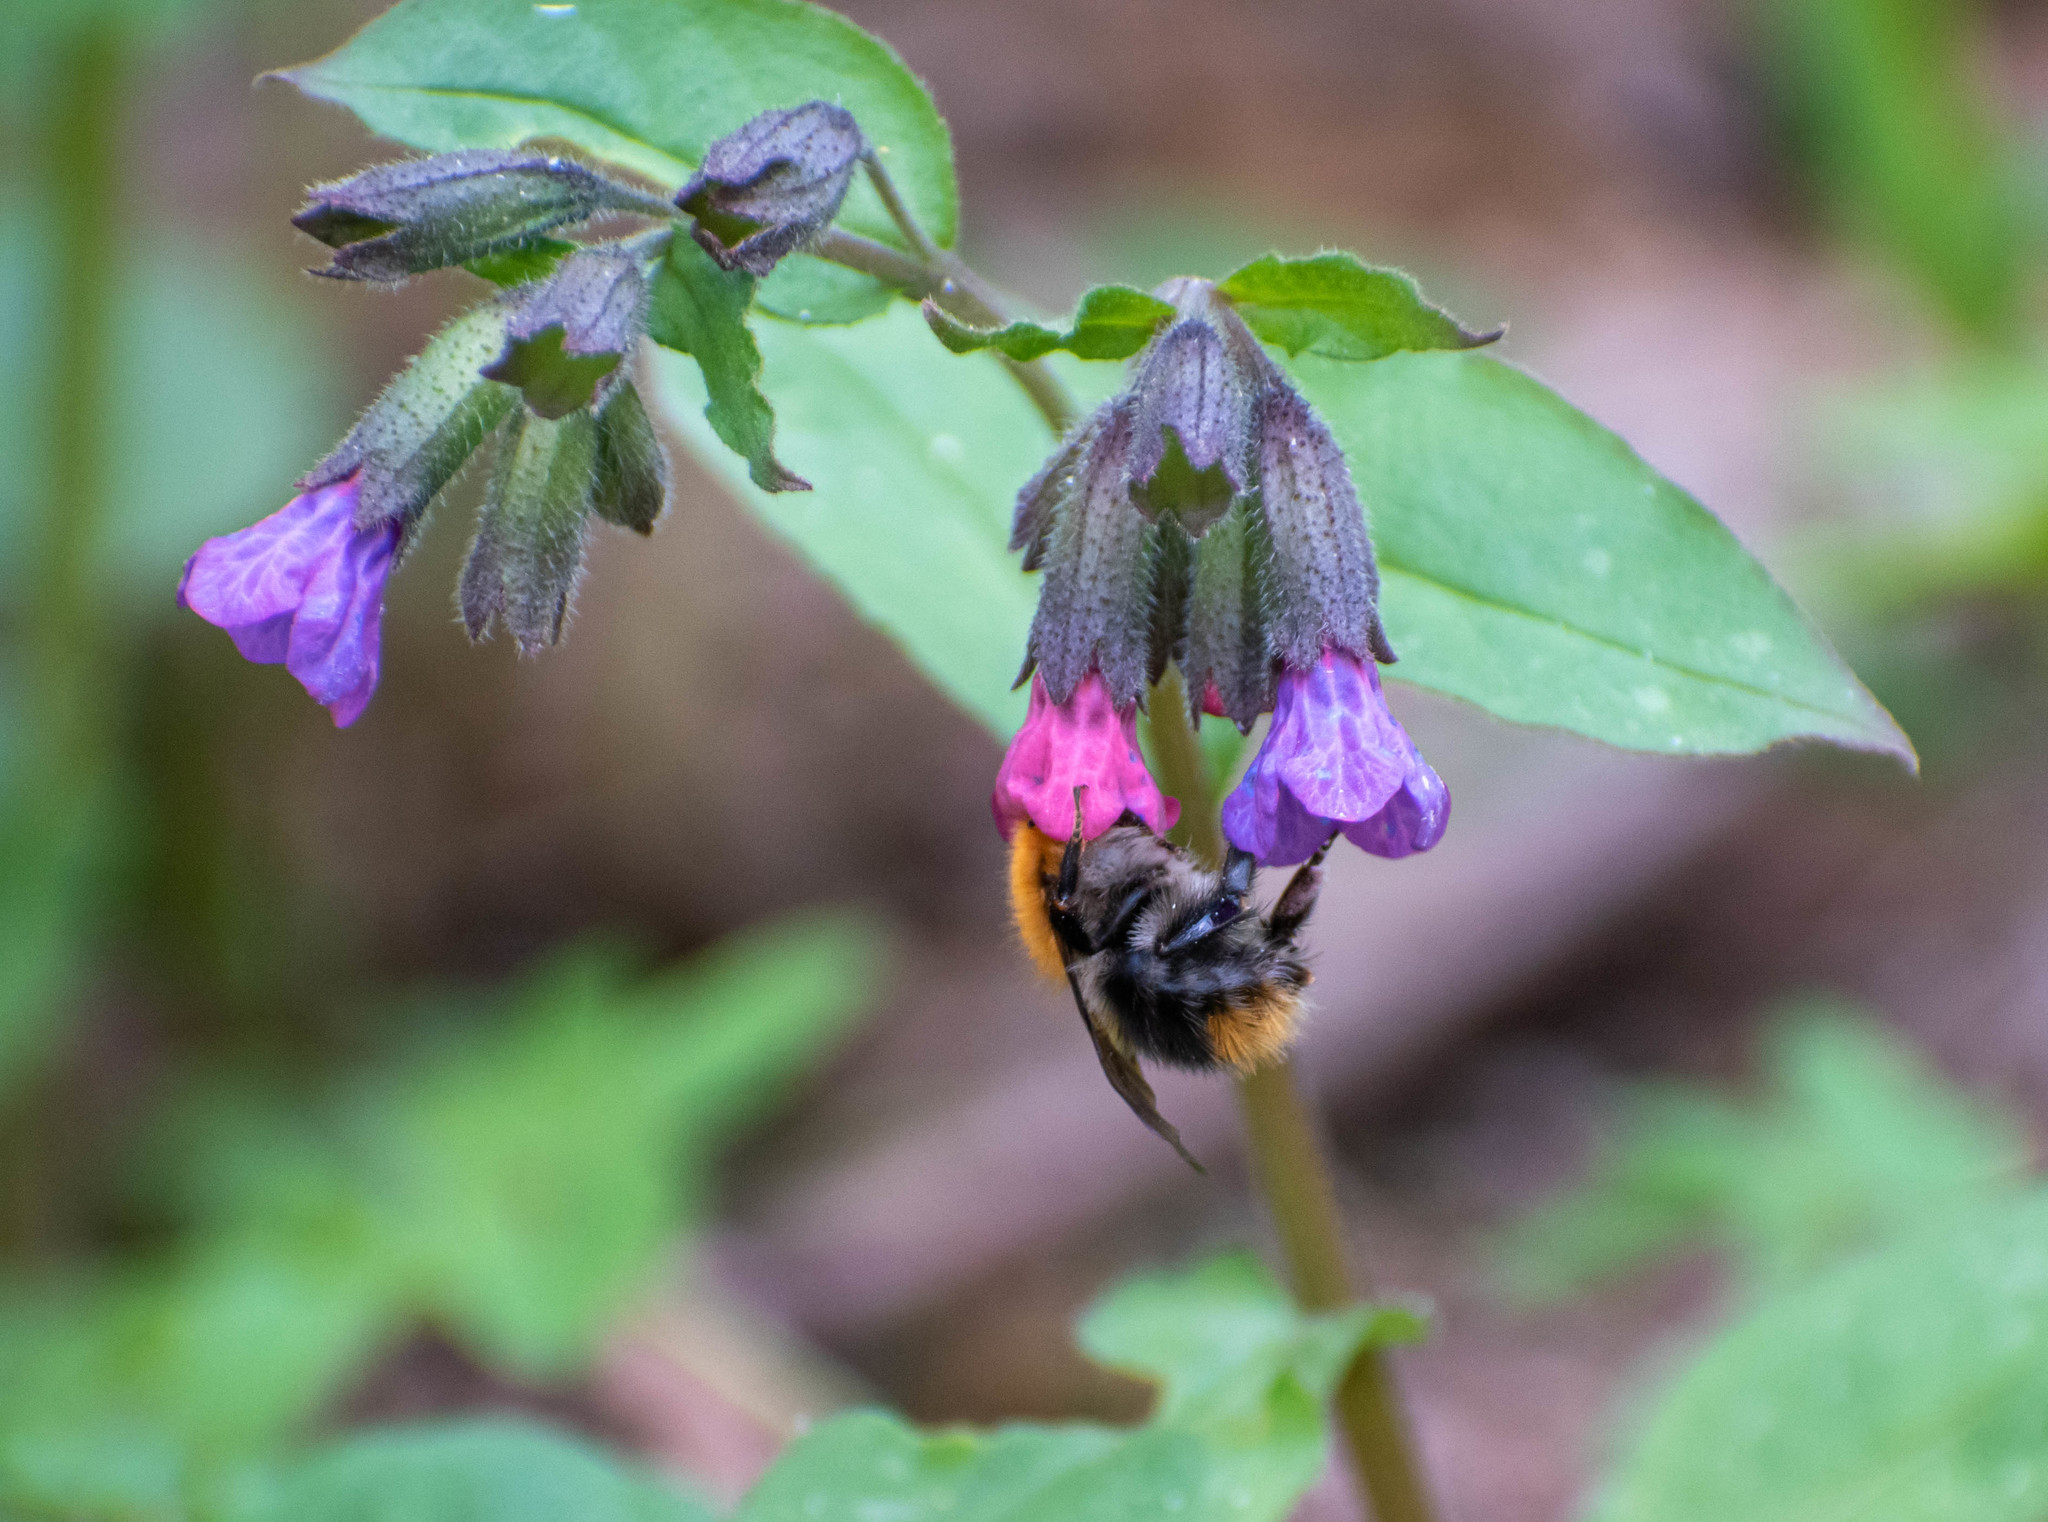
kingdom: Animalia
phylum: Arthropoda
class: Insecta
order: Hymenoptera
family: Apidae
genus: Bombus
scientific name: Bombus pascuorum
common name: Common carder bee
